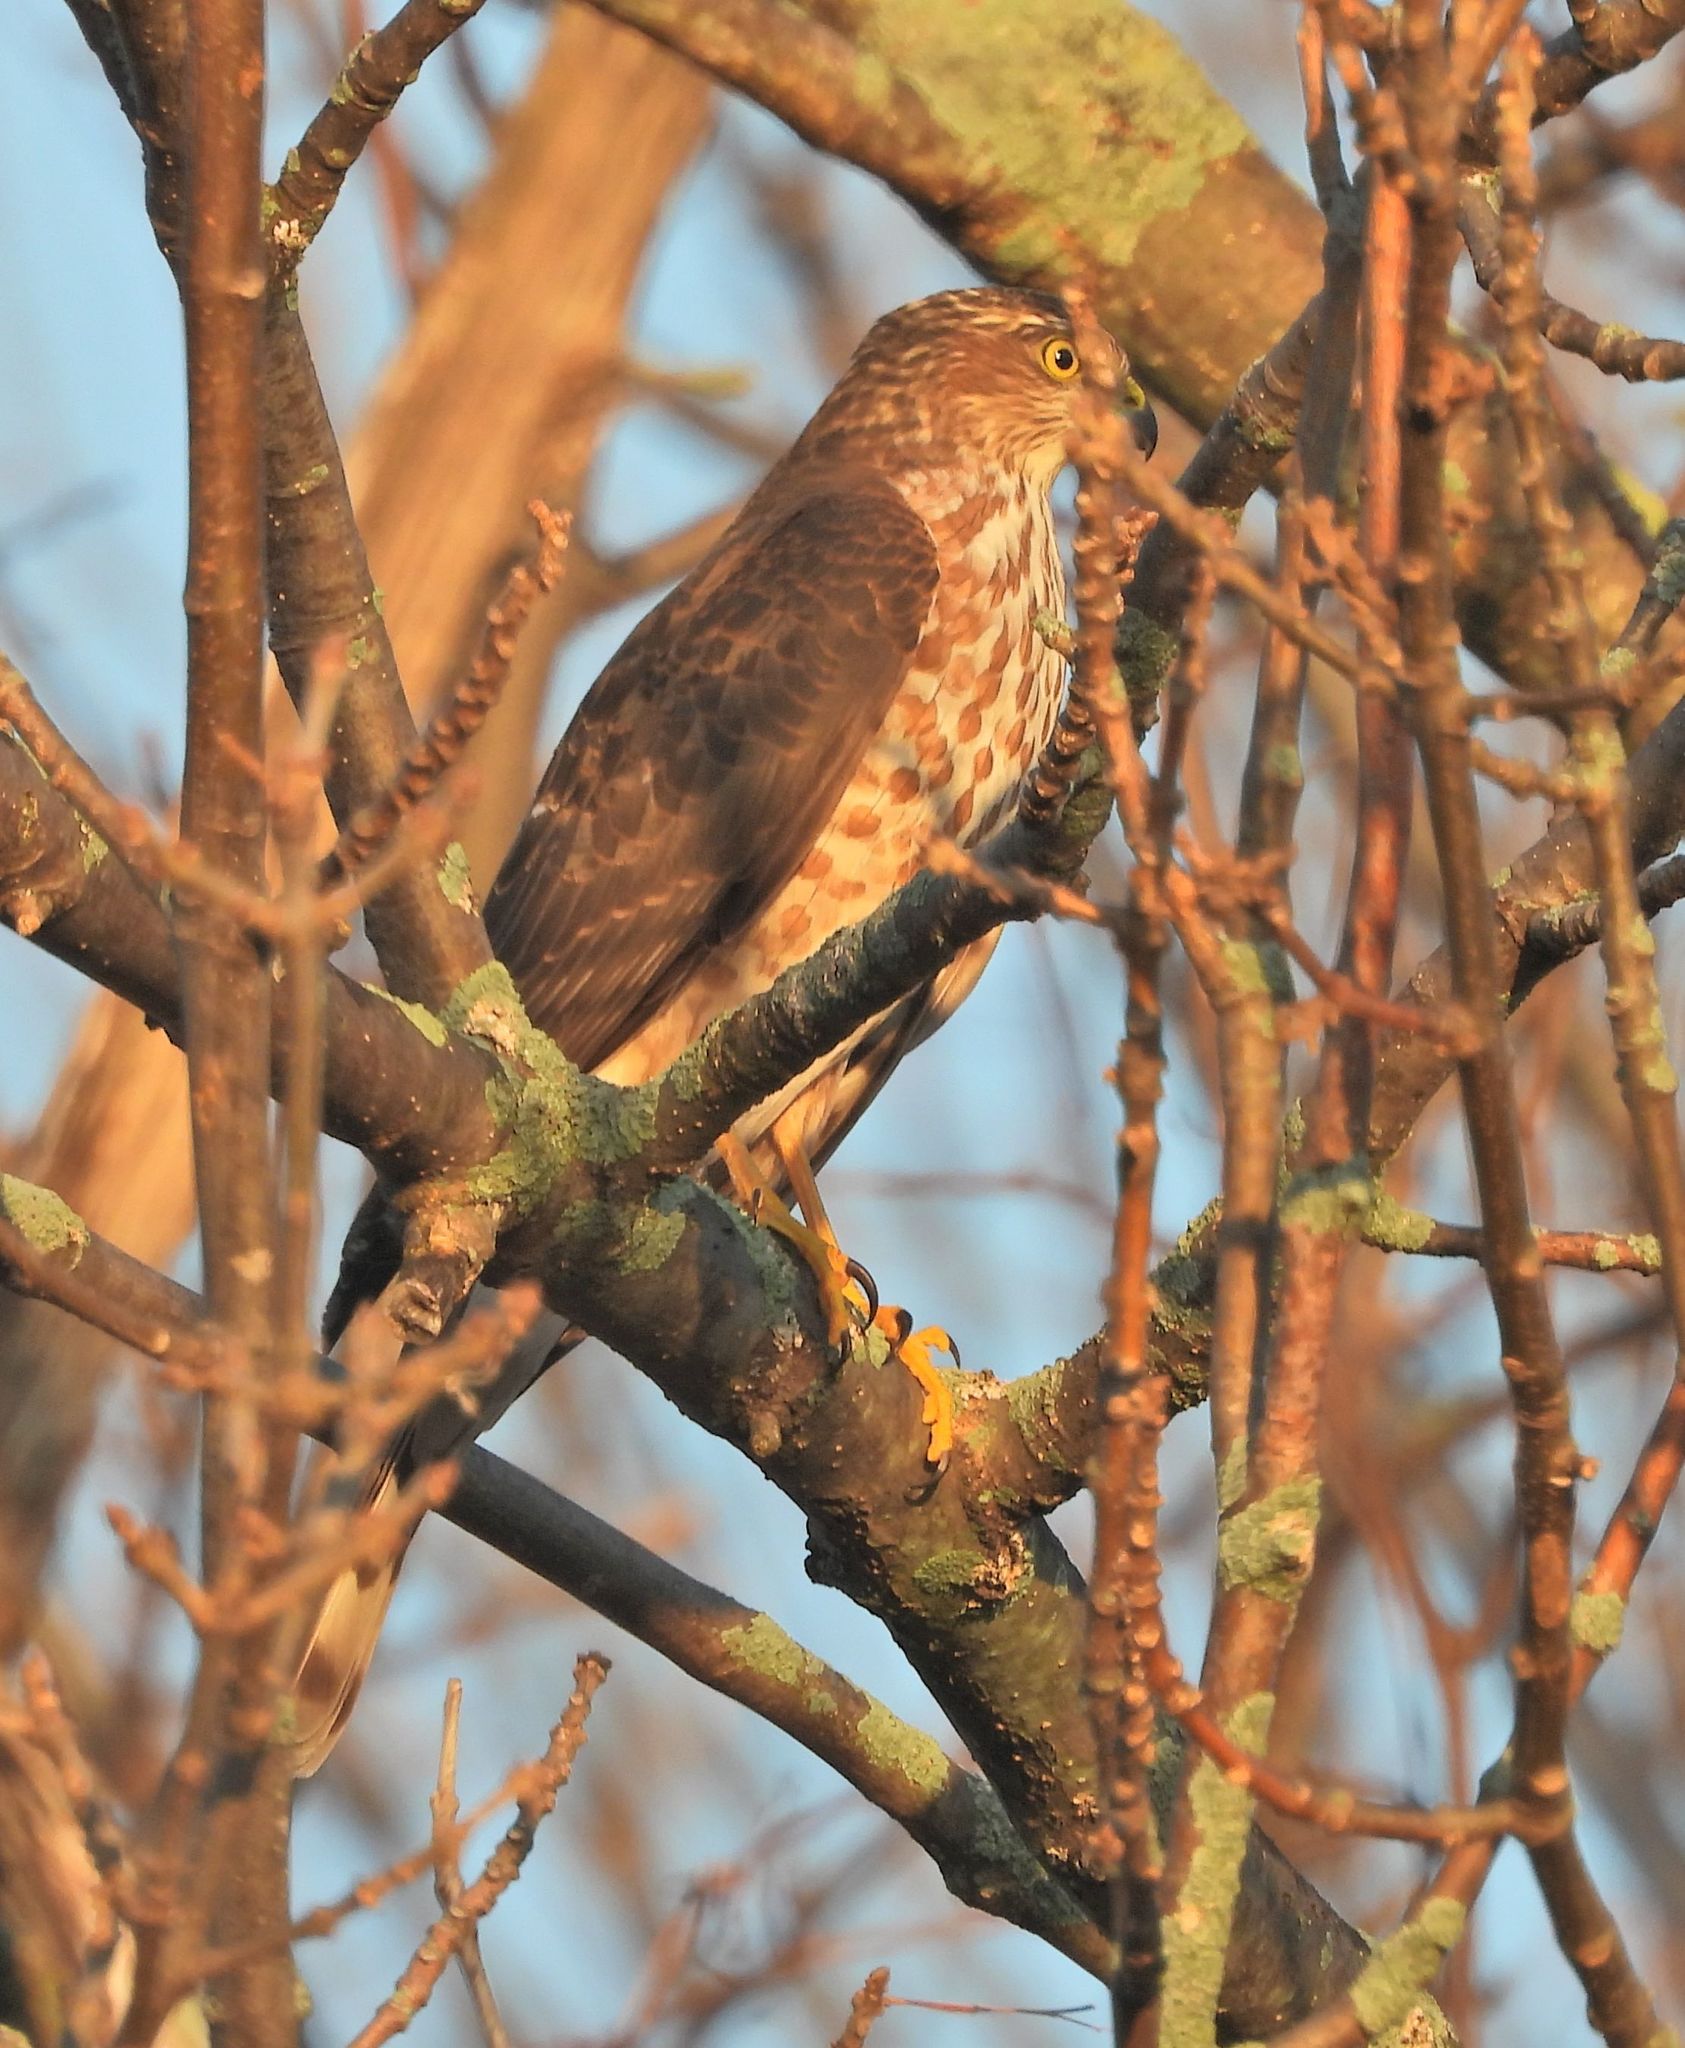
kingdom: Animalia
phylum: Chordata
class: Aves
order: Accipitriformes
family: Accipitridae
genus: Accipiter
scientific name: Accipiter striatus
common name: Sharp-shinned hawk
